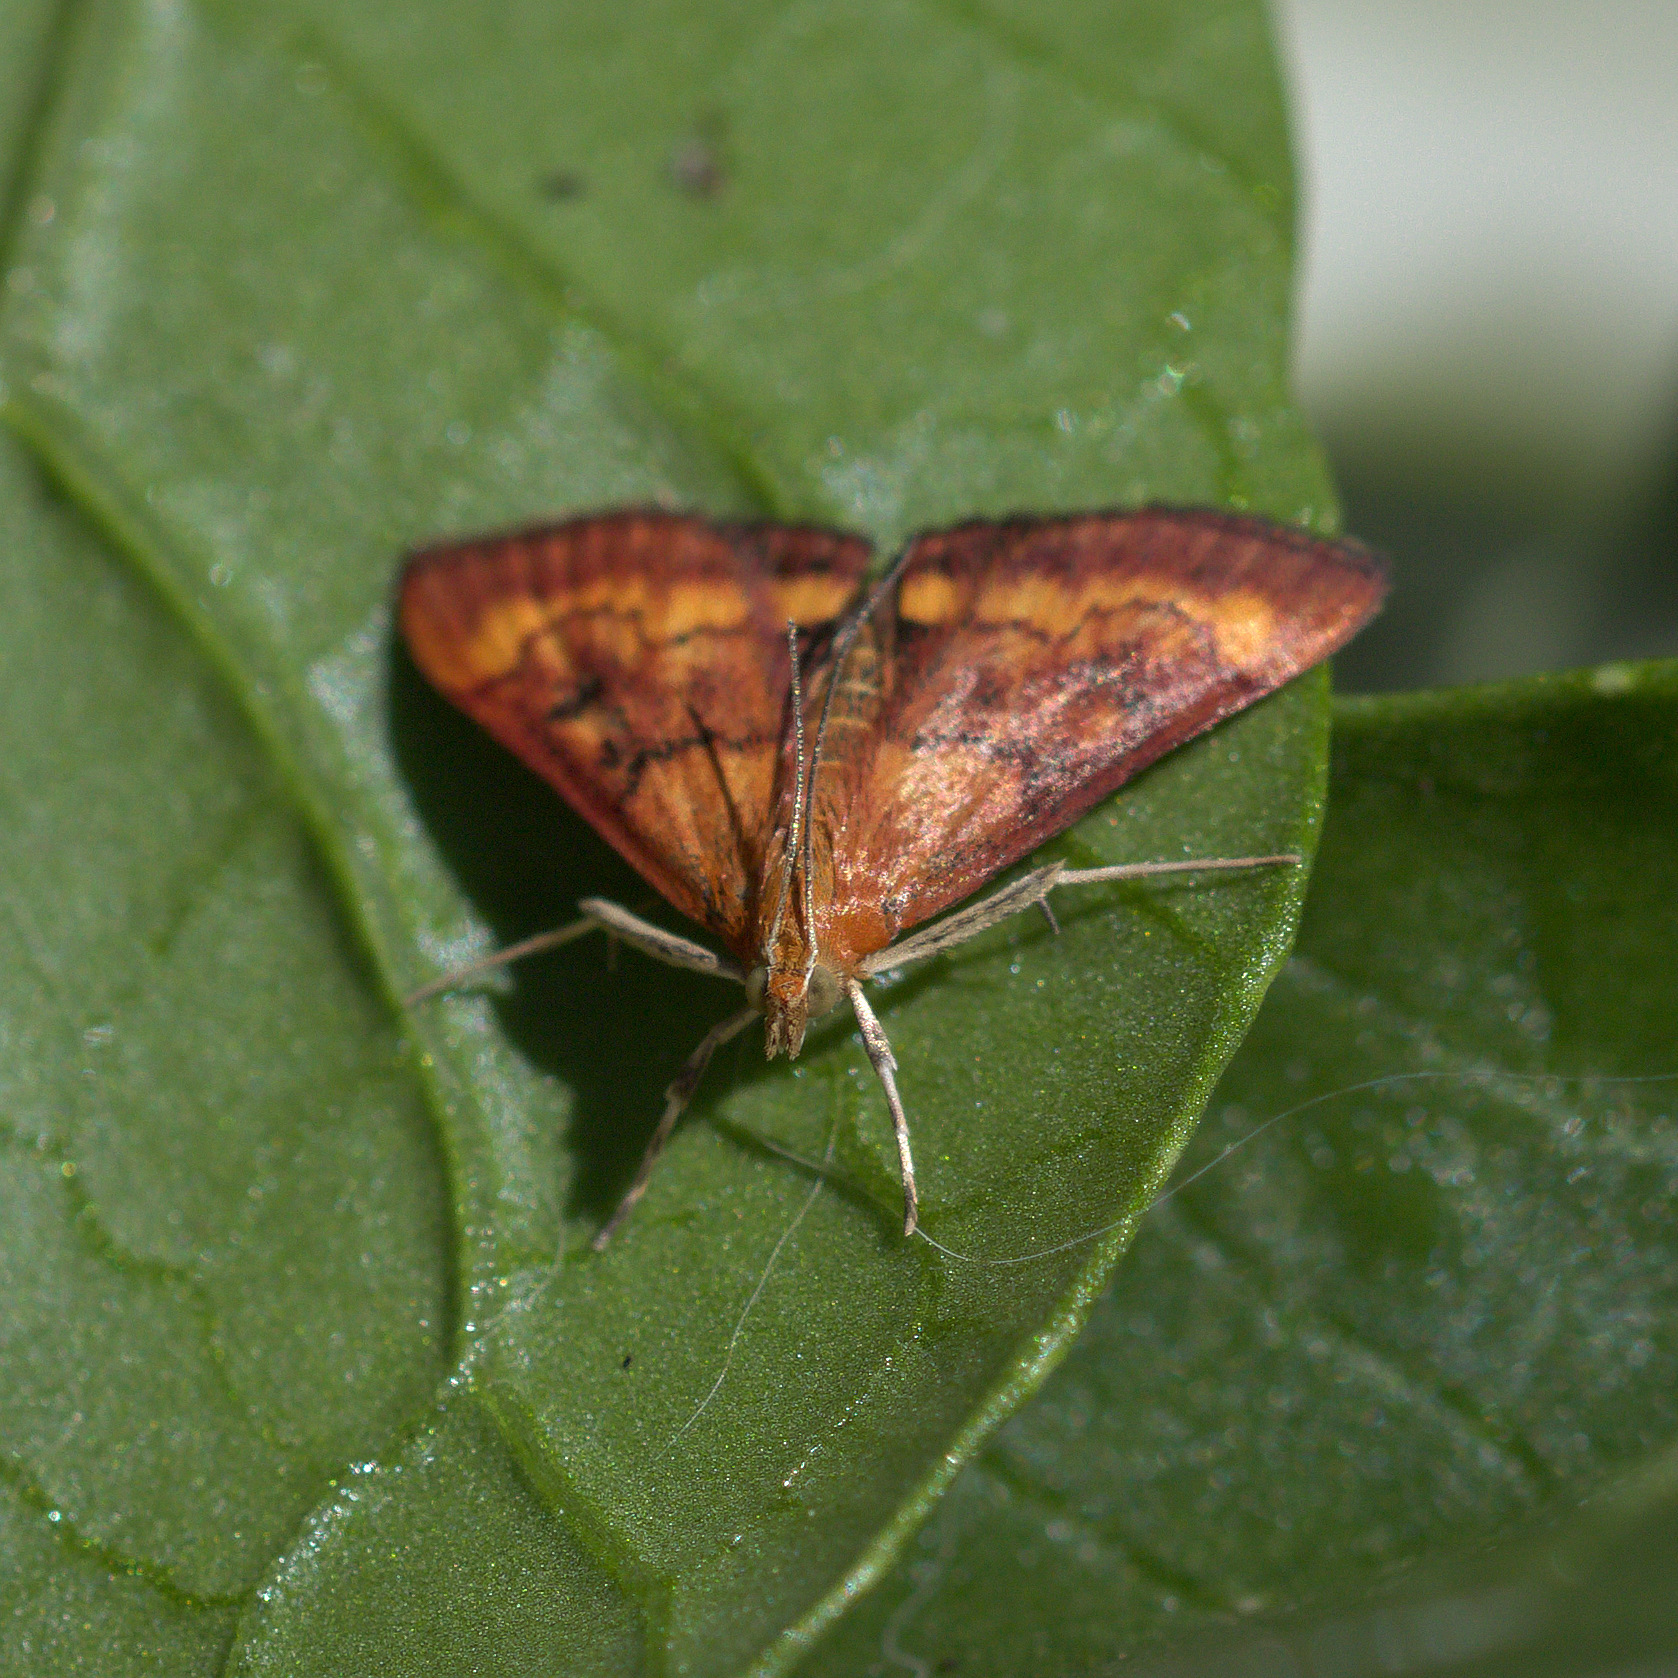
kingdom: Animalia
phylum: Arthropoda
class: Insecta
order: Lepidoptera
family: Crambidae
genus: Pyrausta
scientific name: Pyrausta californicalis
